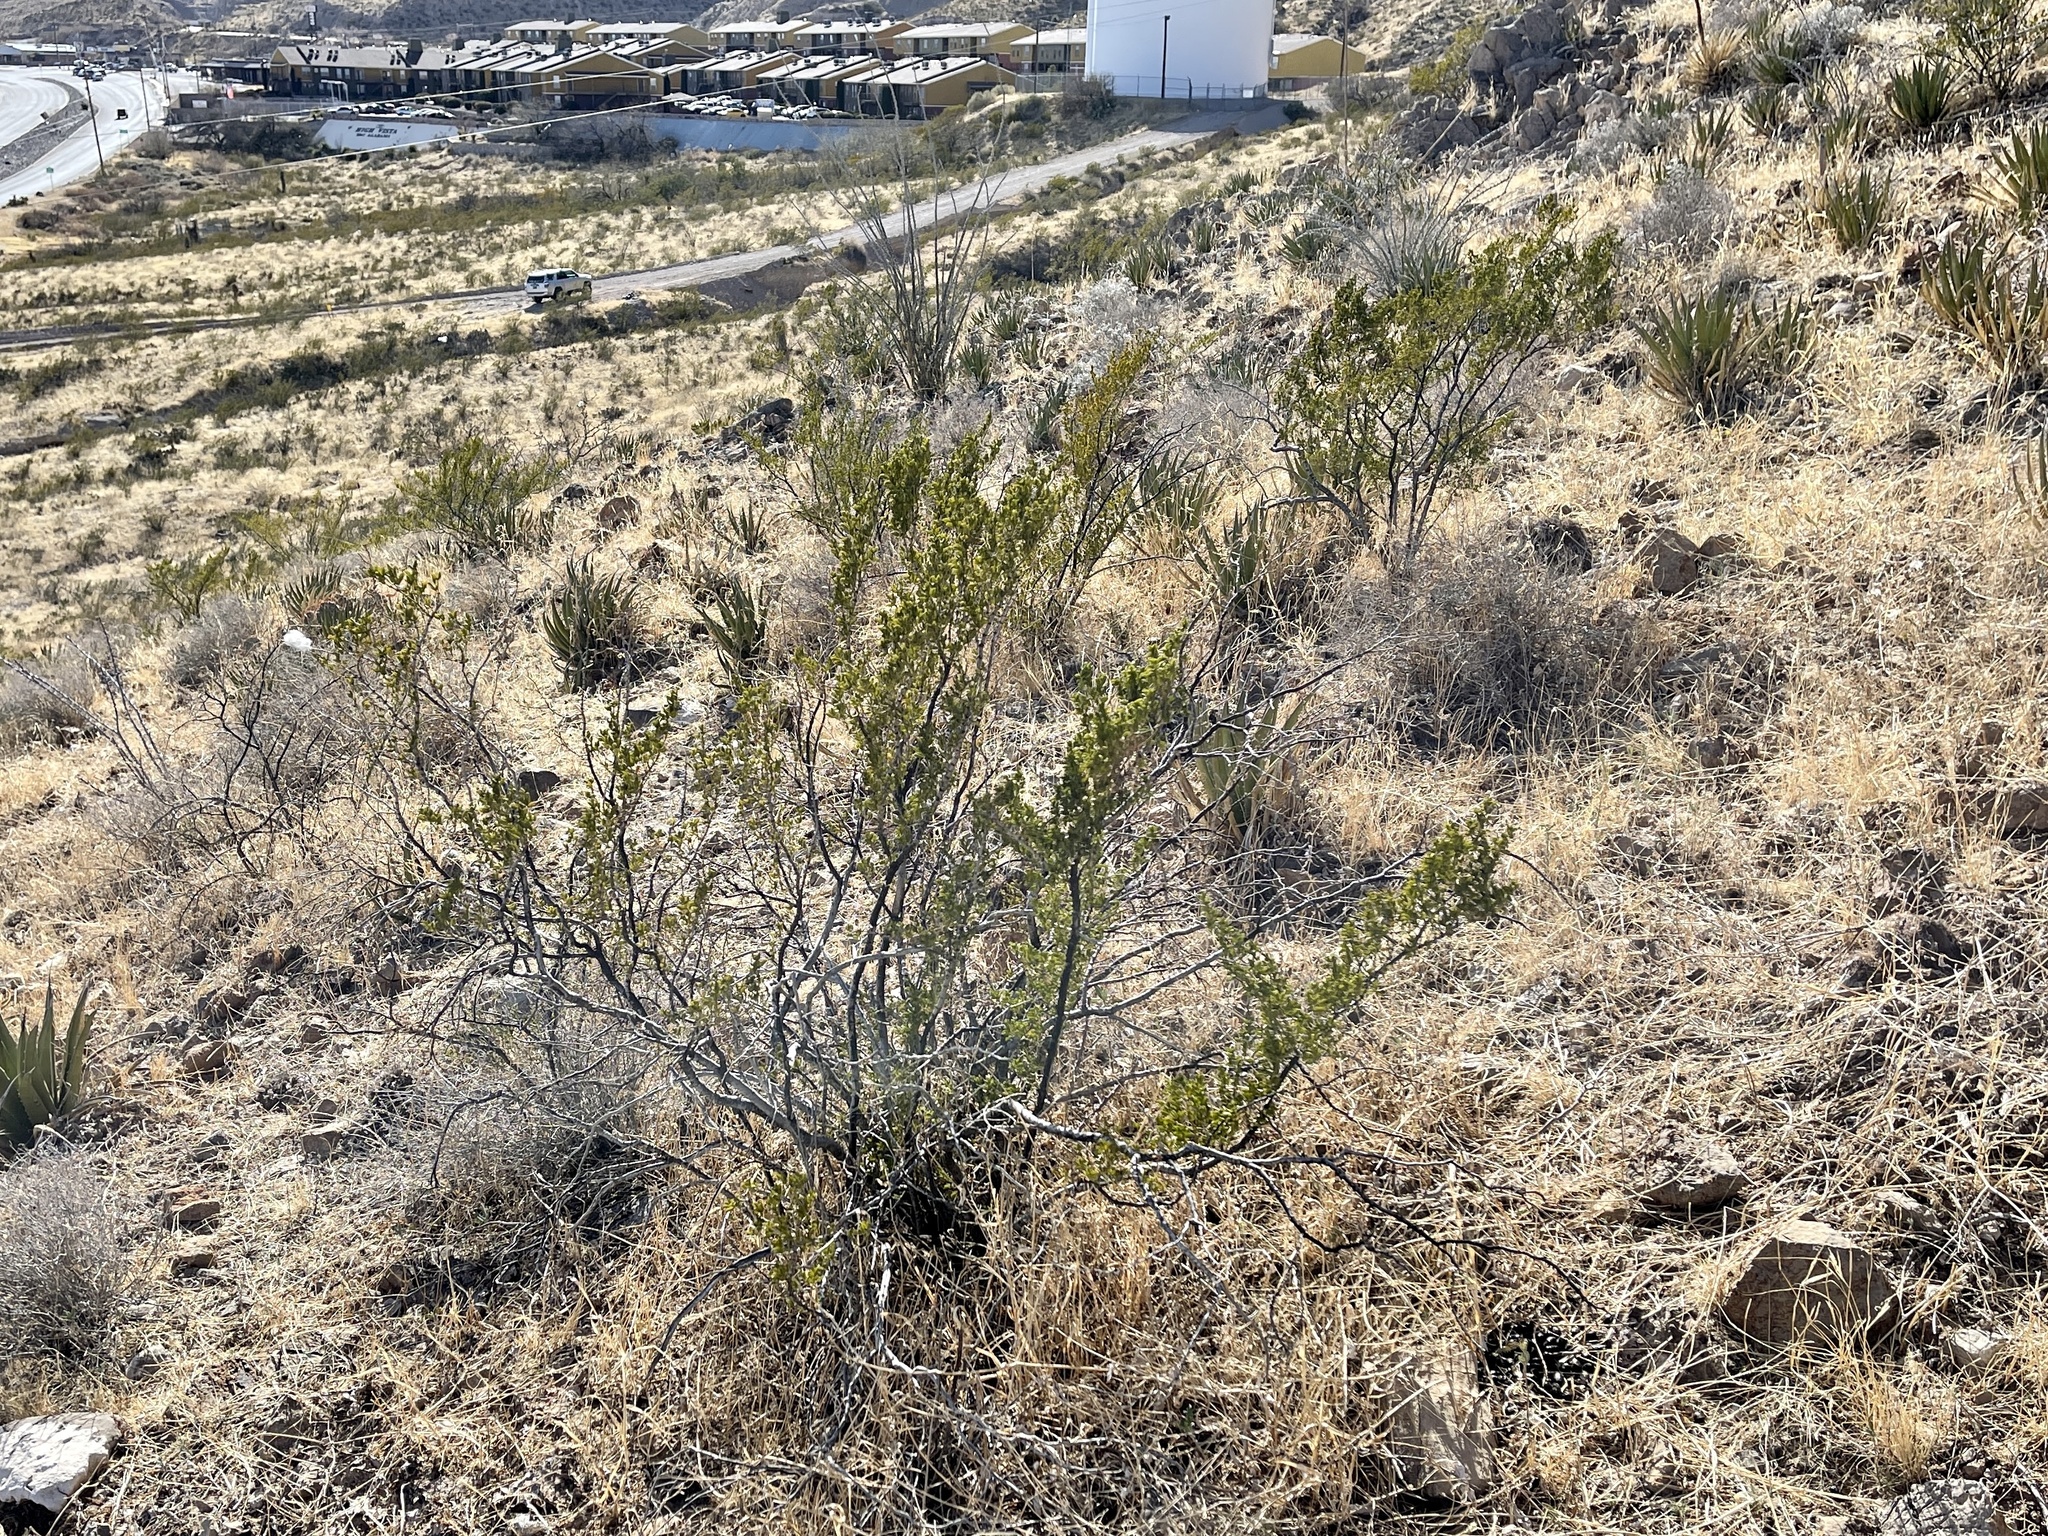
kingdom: Plantae
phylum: Tracheophyta
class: Magnoliopsida
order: Zygophyllales
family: Zygophyllaceae
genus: Larrea
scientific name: Larrea tridentata
